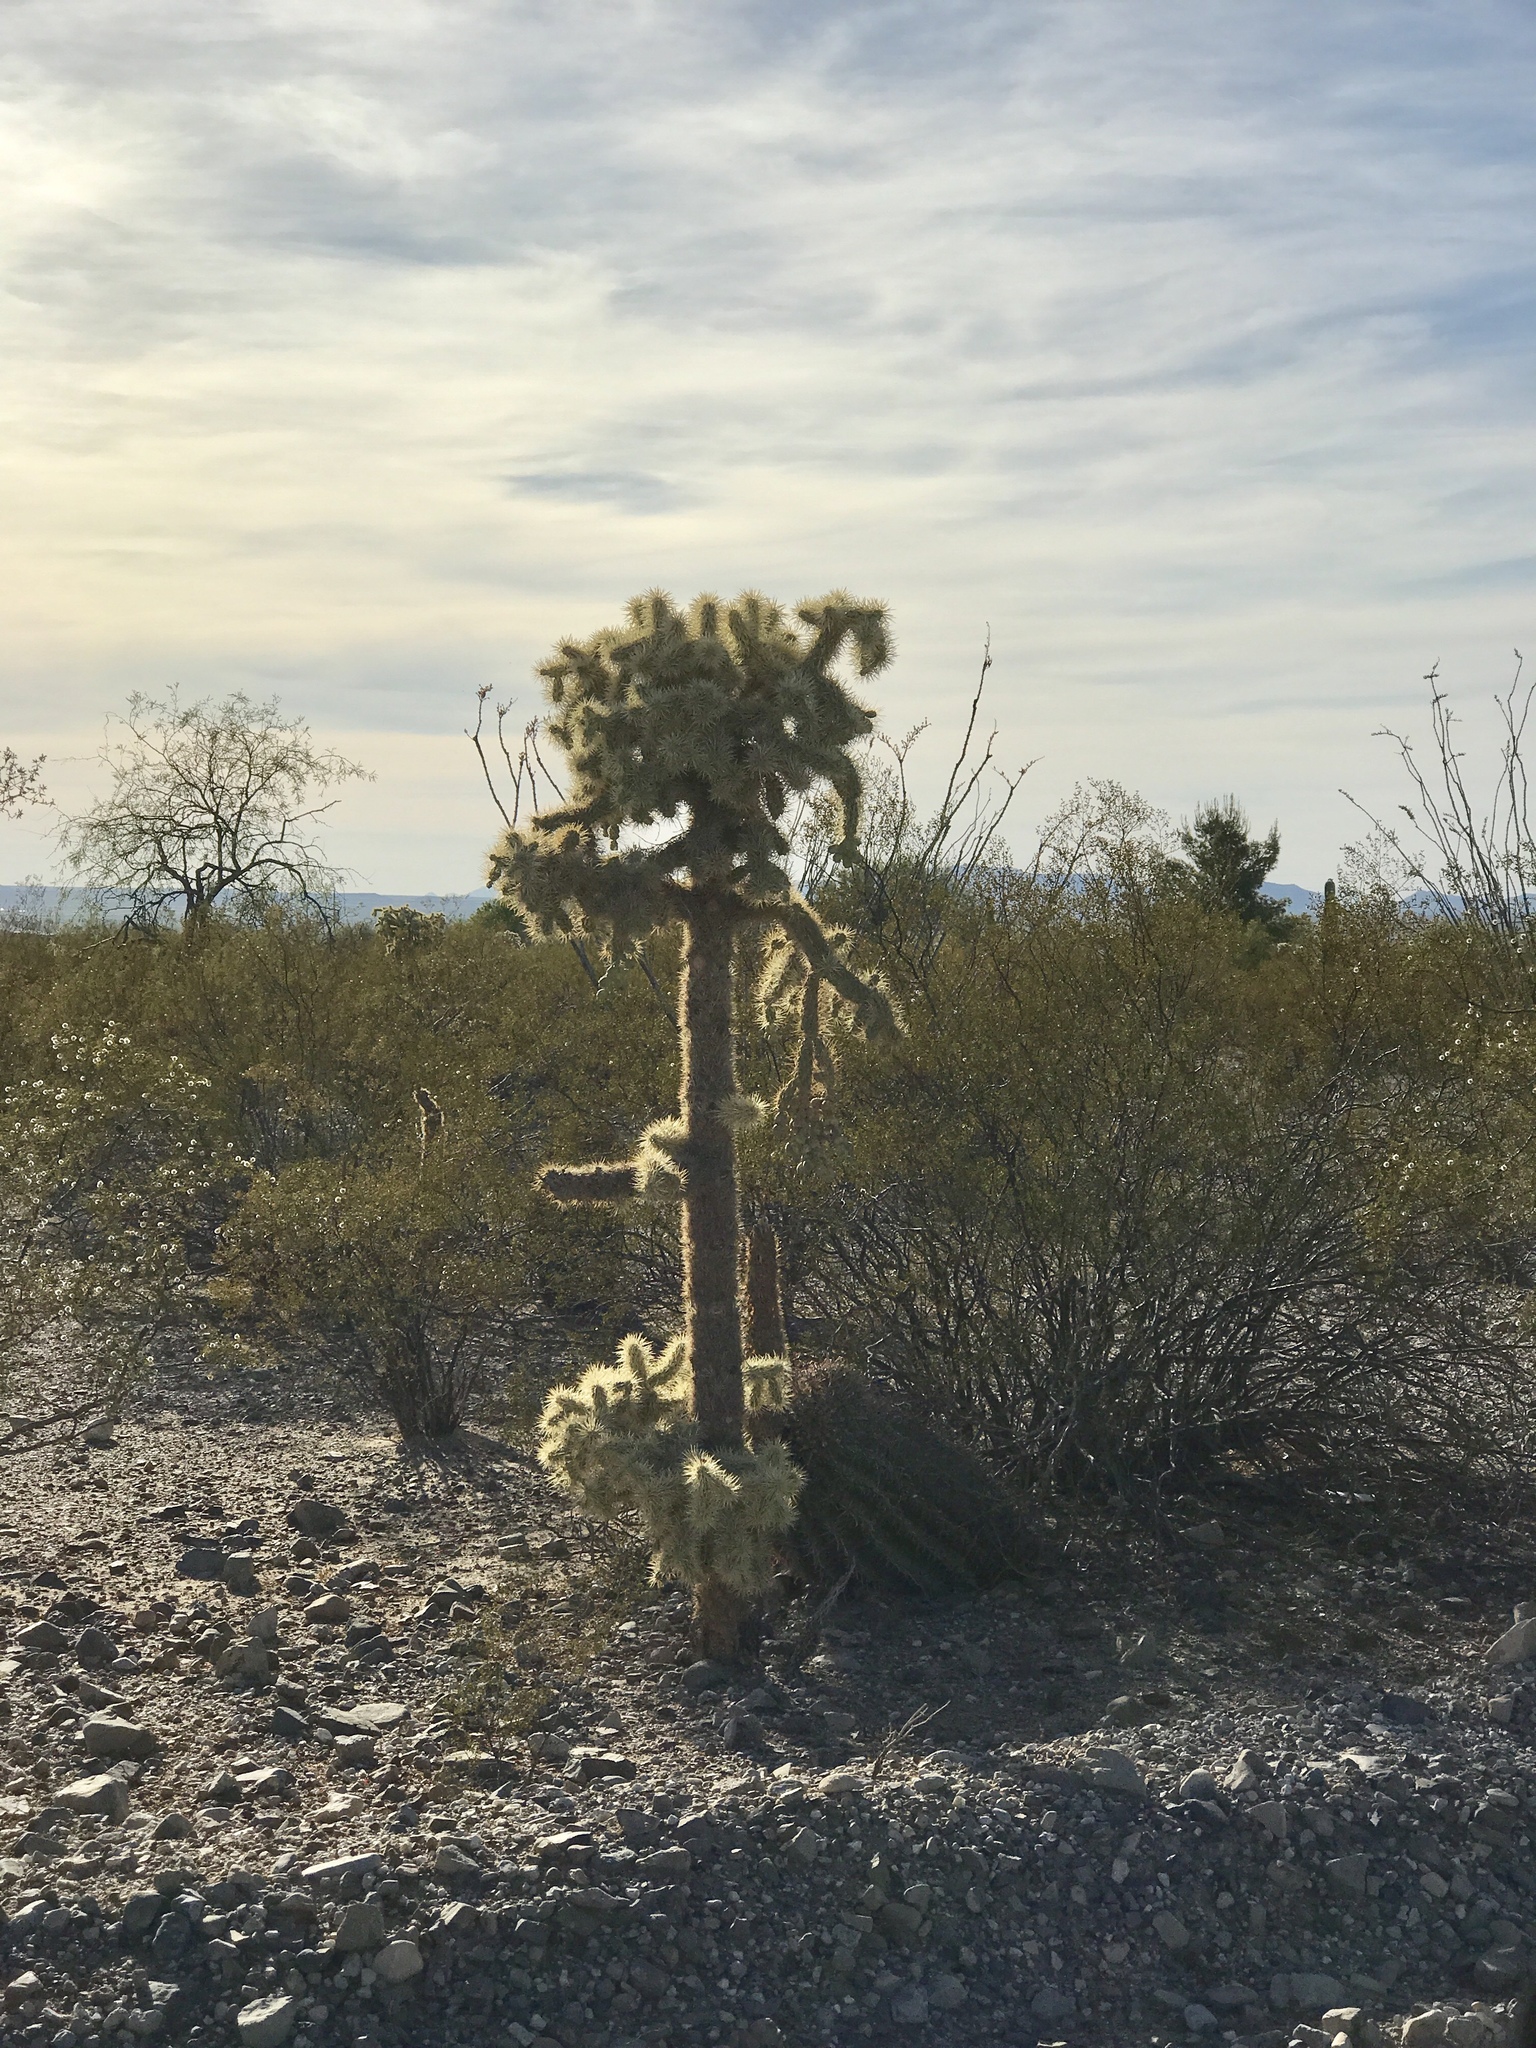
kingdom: Plantae
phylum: Tracheophyta
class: Magnoliopsida
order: Caryophyllales
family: Cactaceae
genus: Cylindropuntia
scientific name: Cylindropuntia fulgida
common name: Jumping cholla
